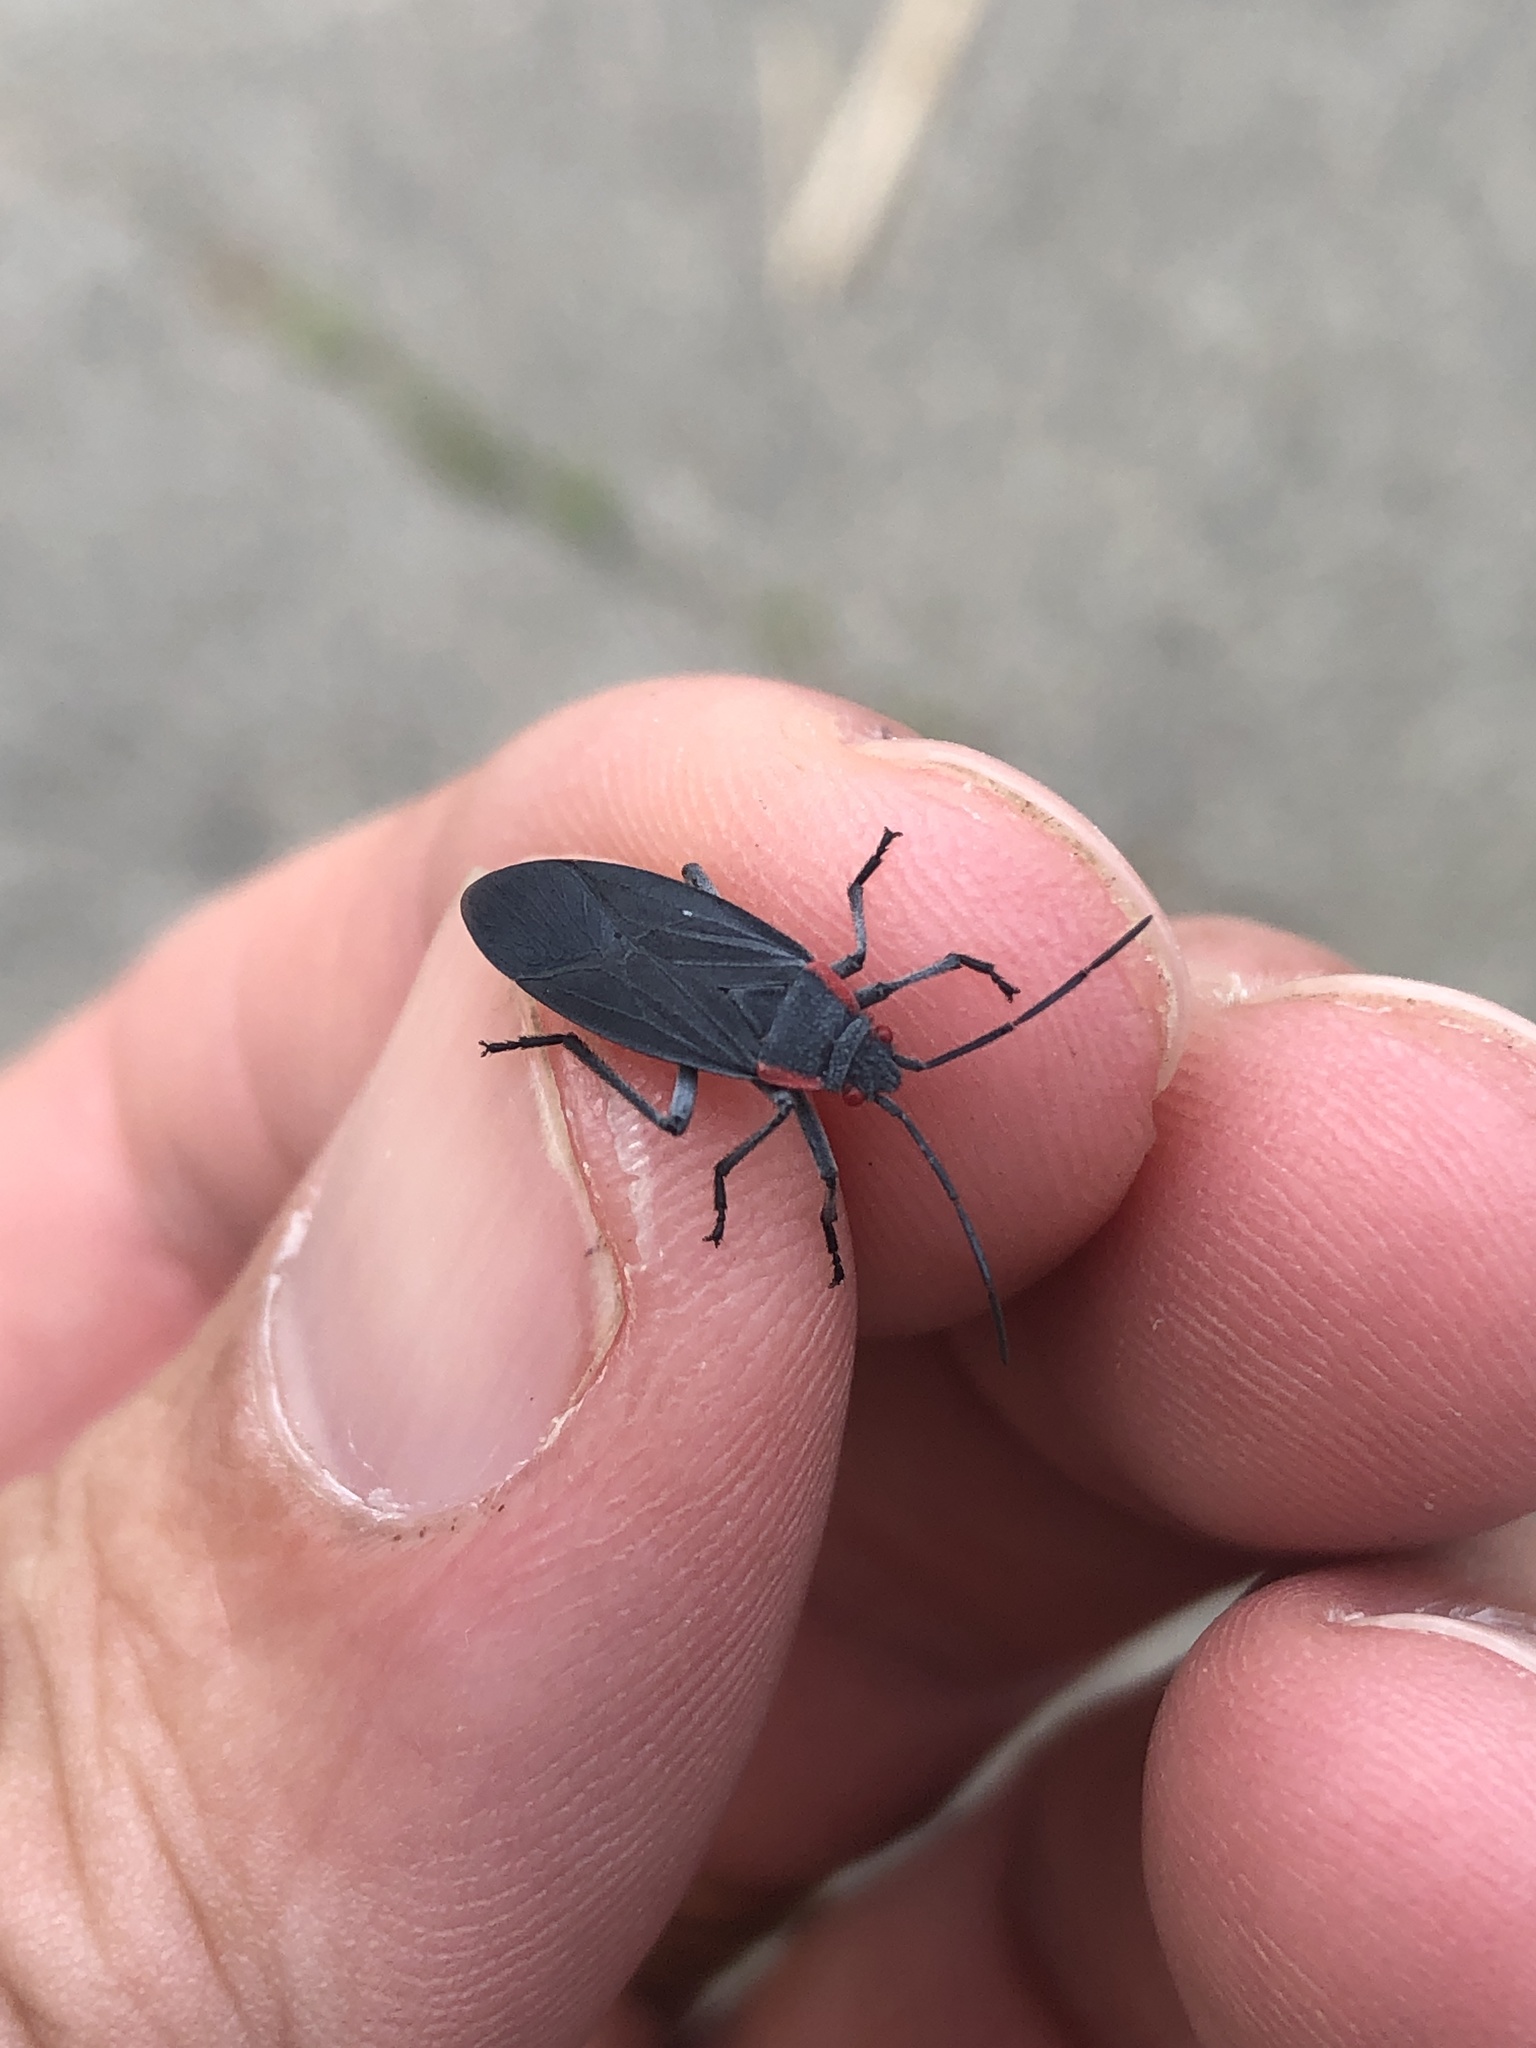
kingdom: Animalia
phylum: Arthropoda
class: Insecta
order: Hemiptera
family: Rhopalidae
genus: Jadera
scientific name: Jadera haematoloma
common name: Red-shouldered bug
